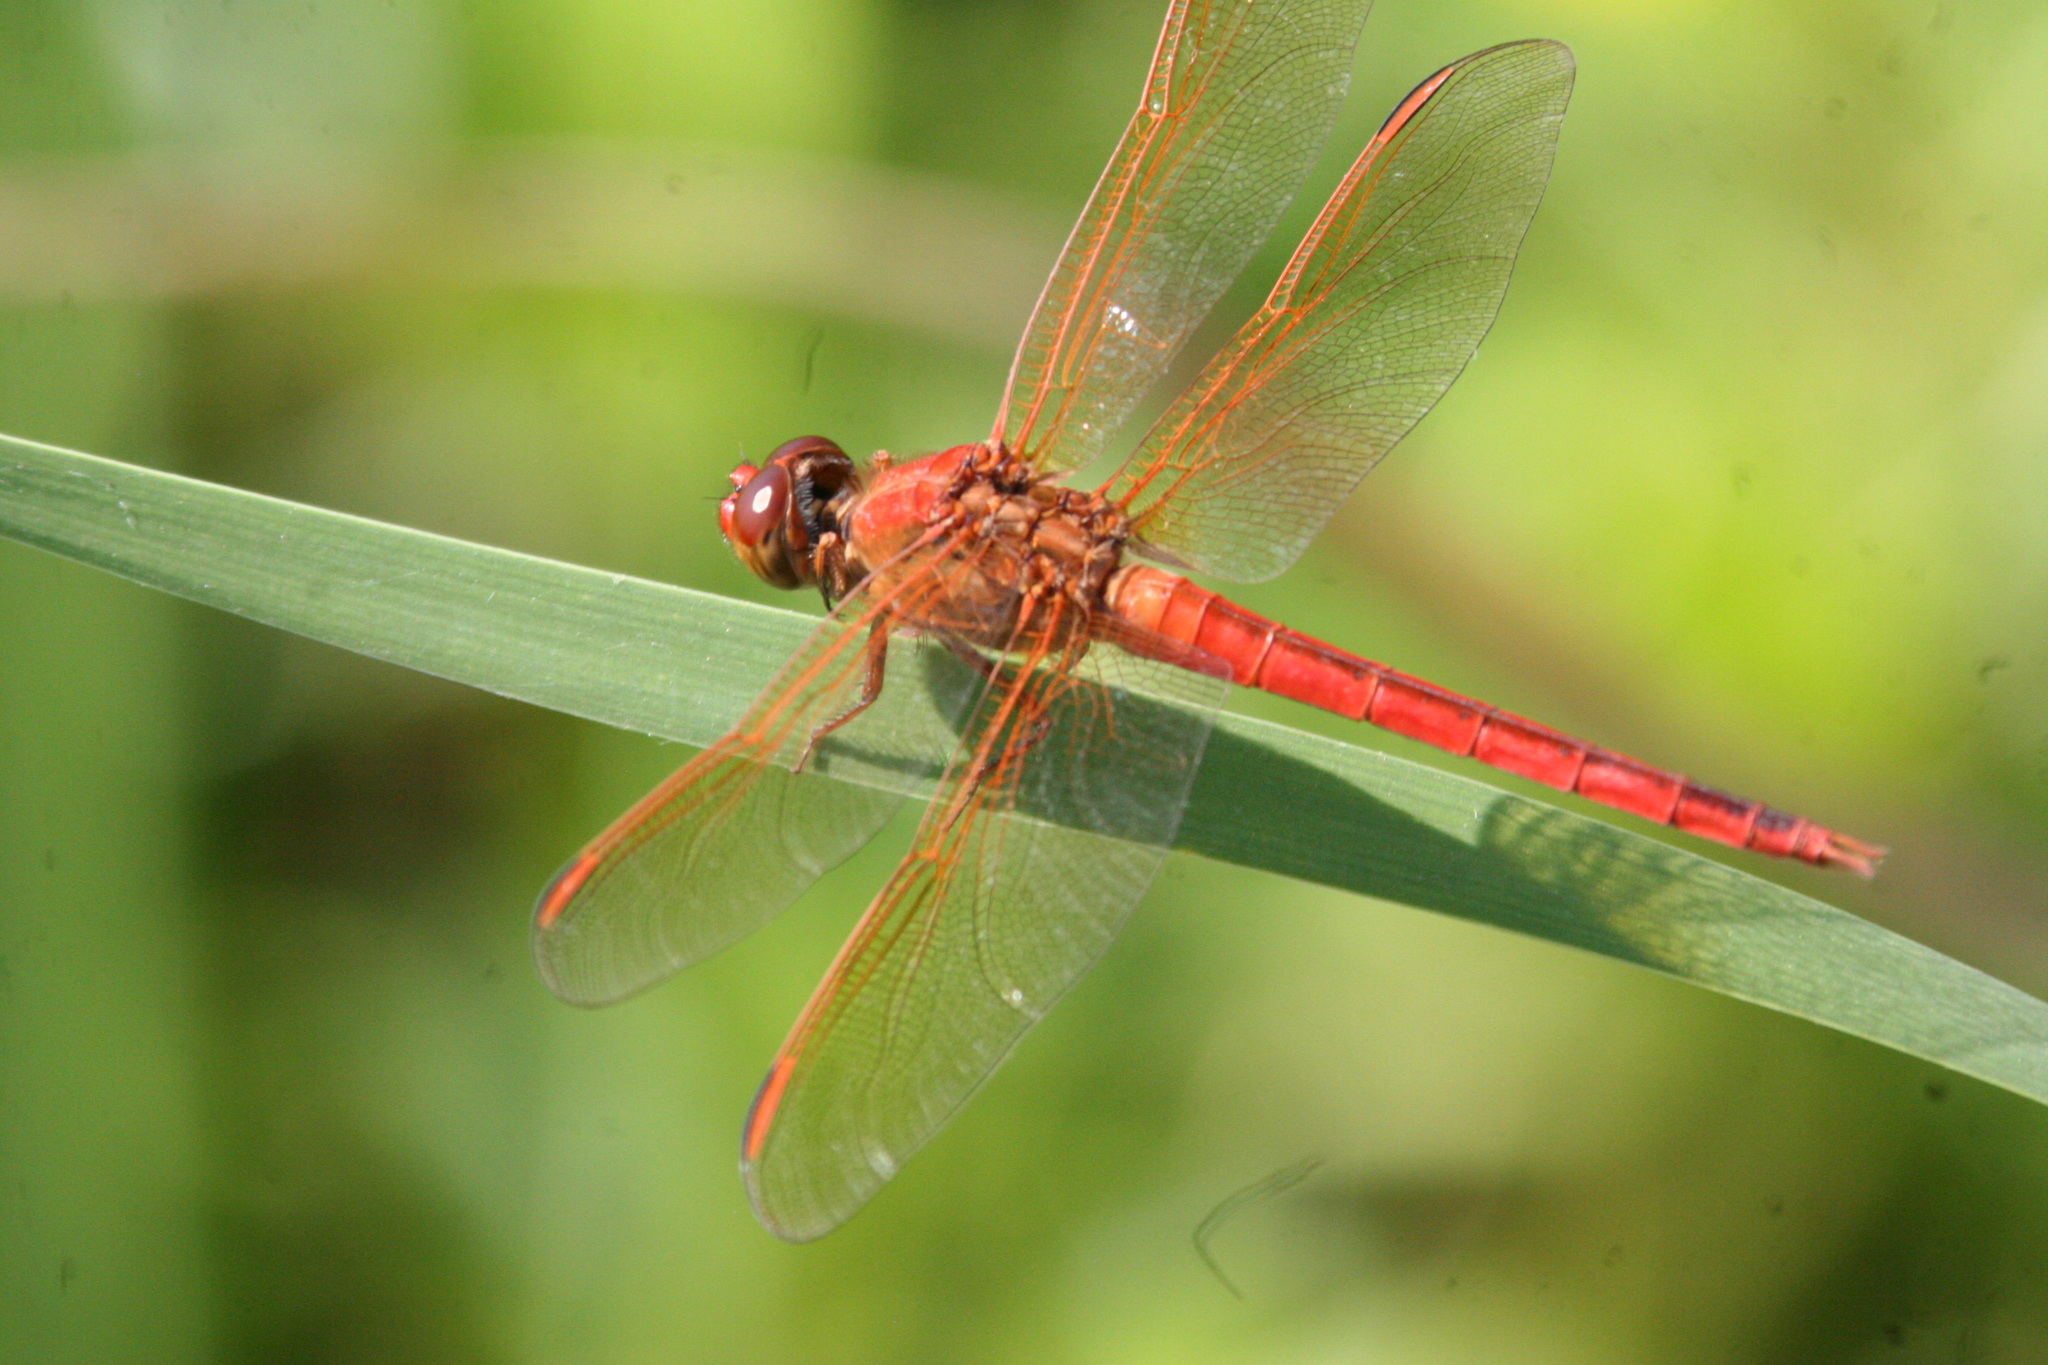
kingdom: Animalia
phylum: Arthropoda
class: Insecta
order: Odonata
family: Libellulidae
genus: Libellula
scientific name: Libellula needhami
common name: Needham's skimmer
